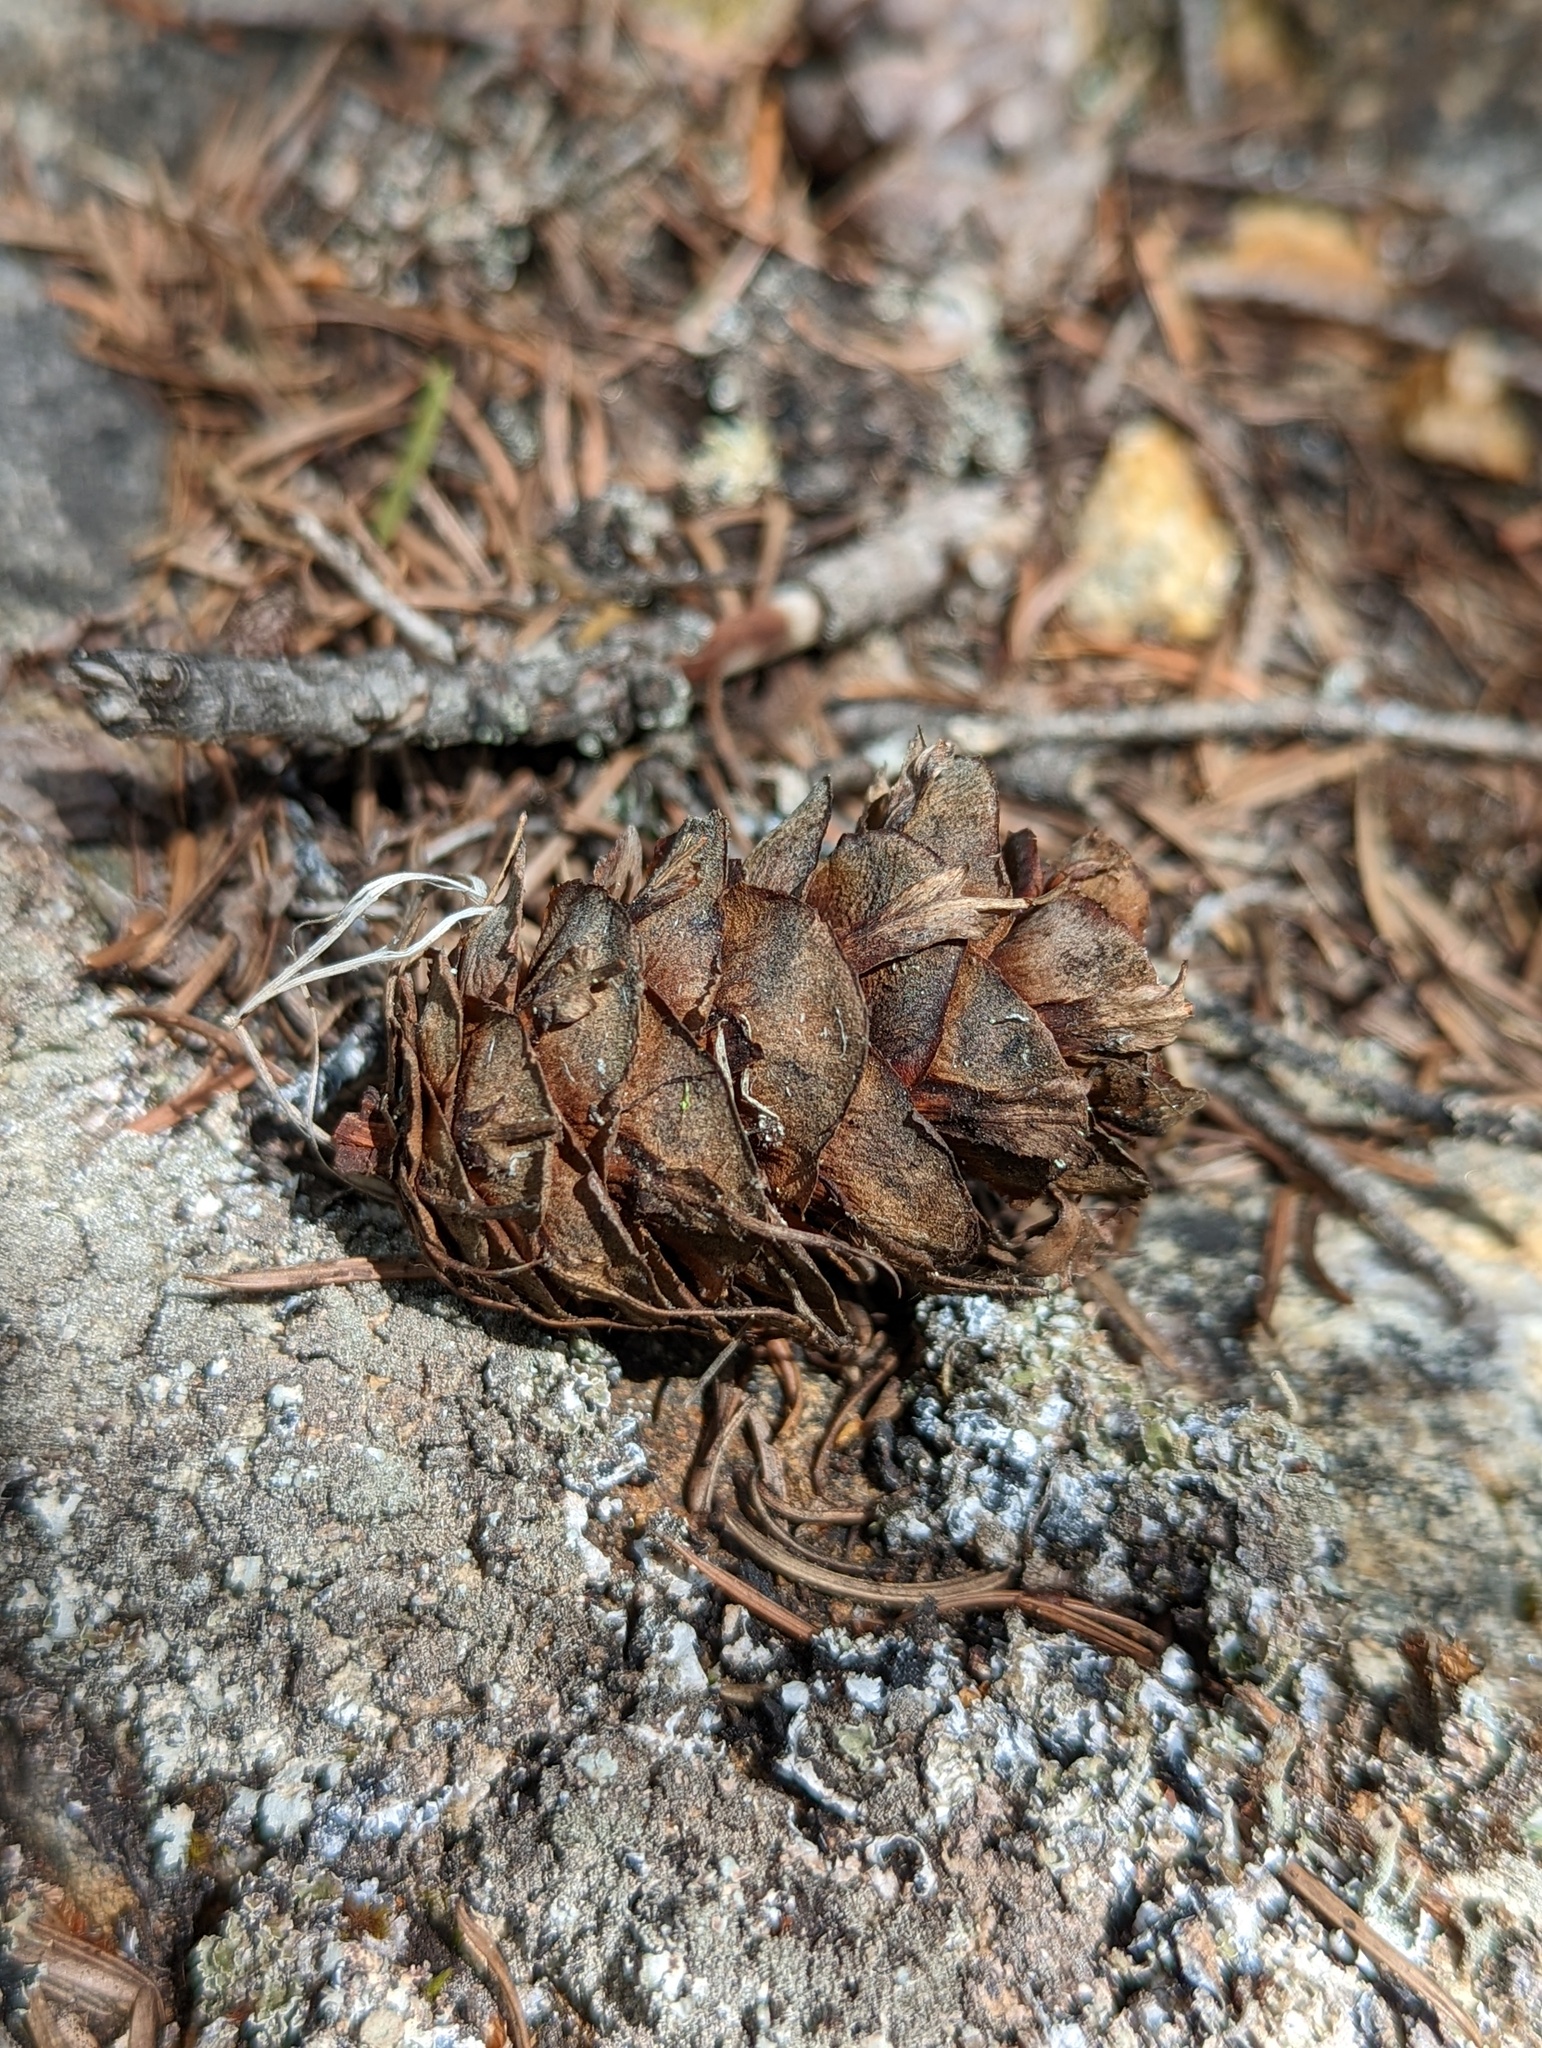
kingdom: Plantae
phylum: Tracheophyta
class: Pinopsida
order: Pinales
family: Pinaceae
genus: Pseudotsuga
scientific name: Pseudotsuga menziesii
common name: Douglas fir
